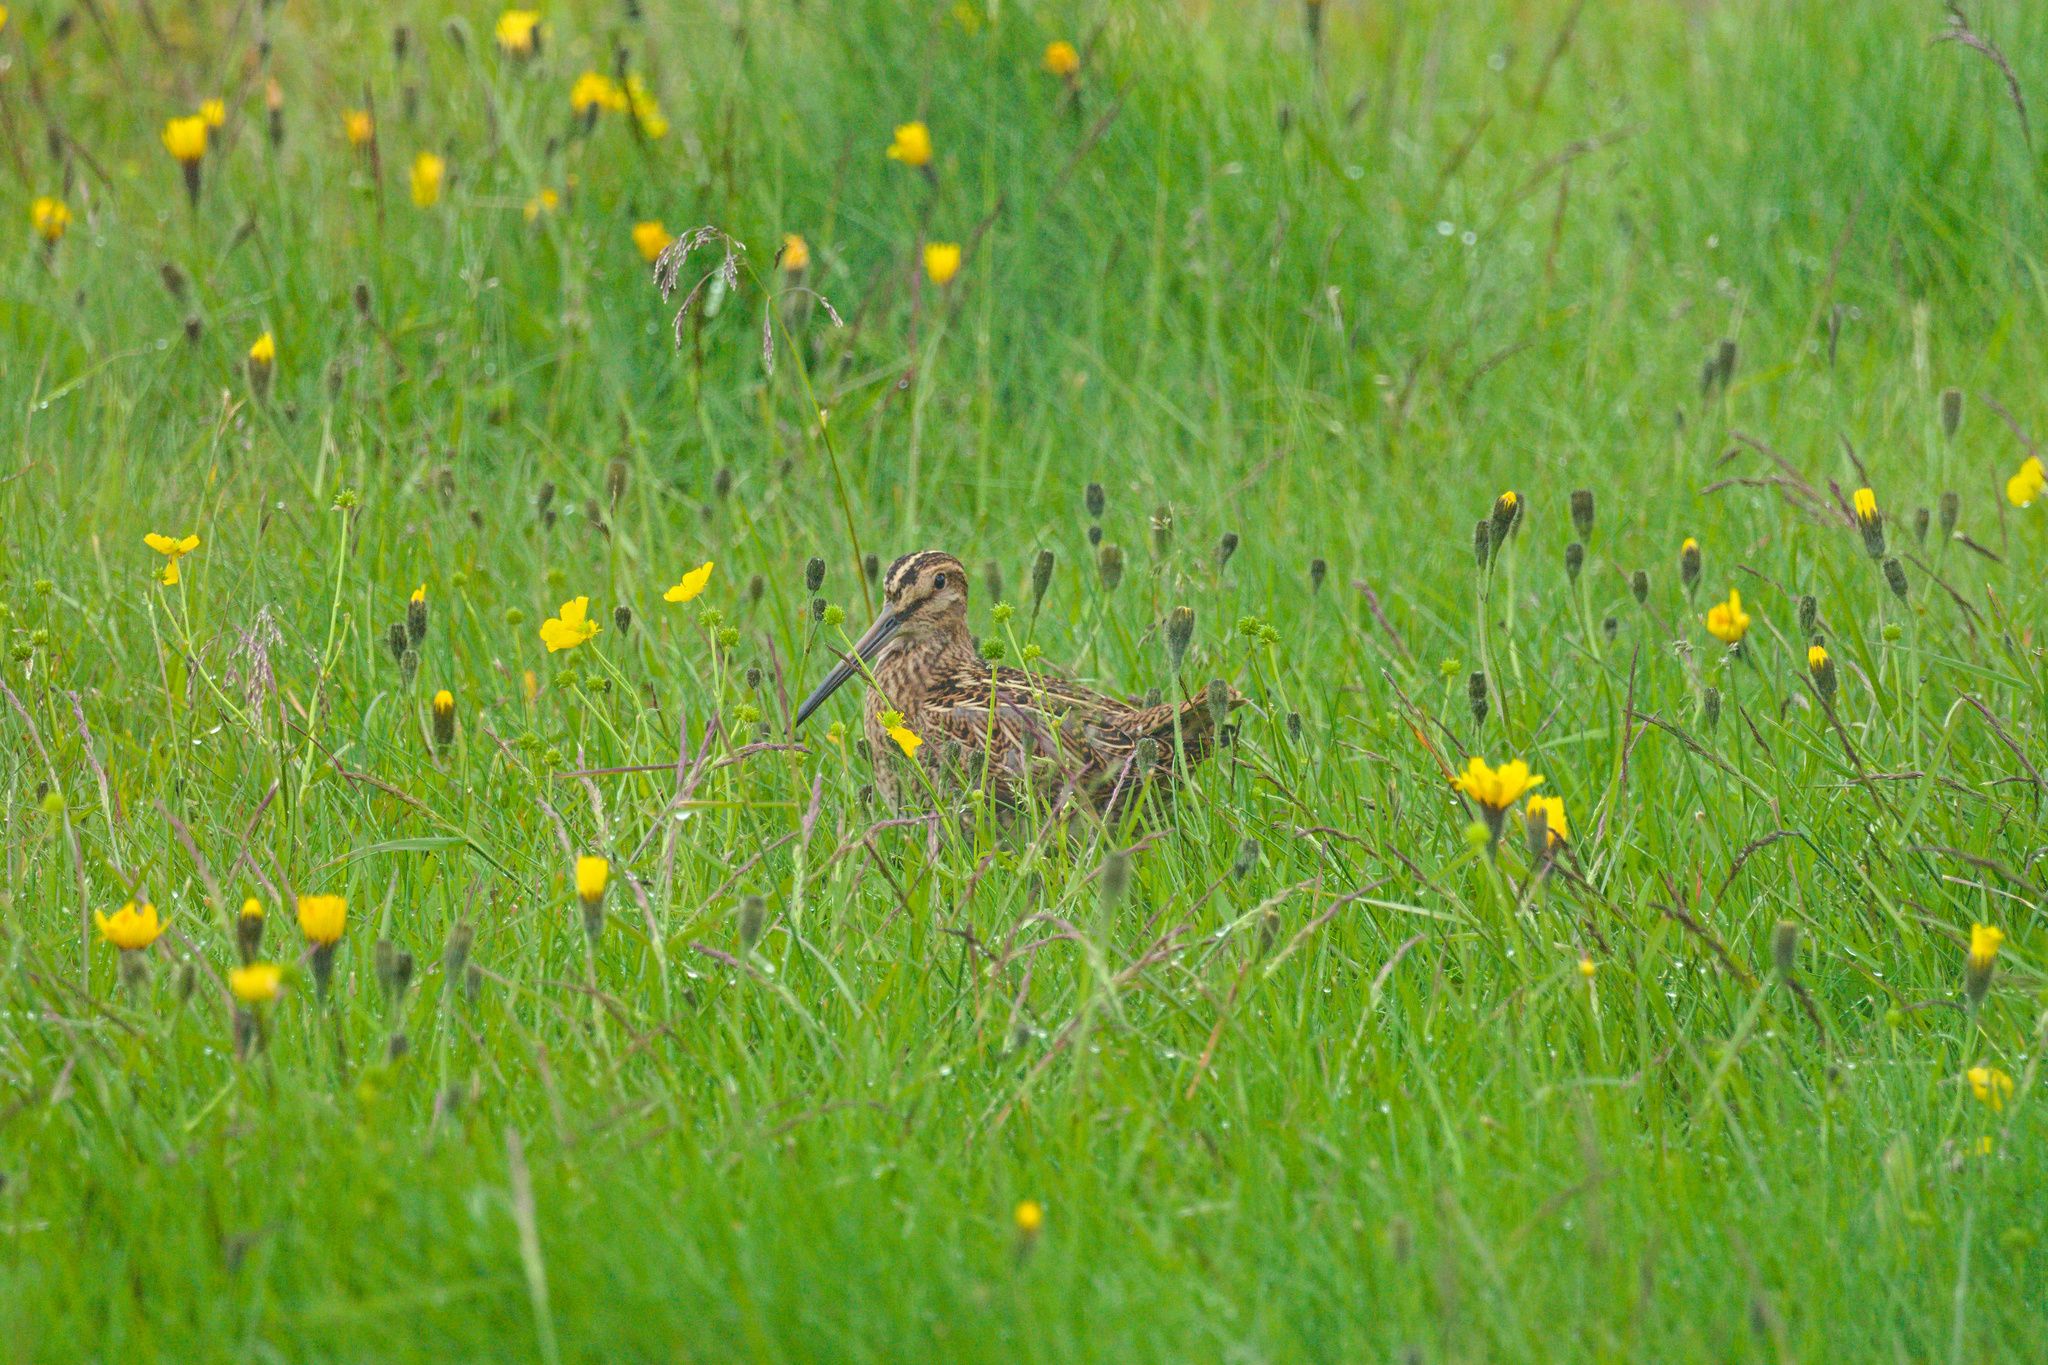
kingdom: Animalia
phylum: Chordata
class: Aves
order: Charadriiformes
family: Scolopacidae
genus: Gallinago
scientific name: Gallinago gallinago
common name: Common snipe
